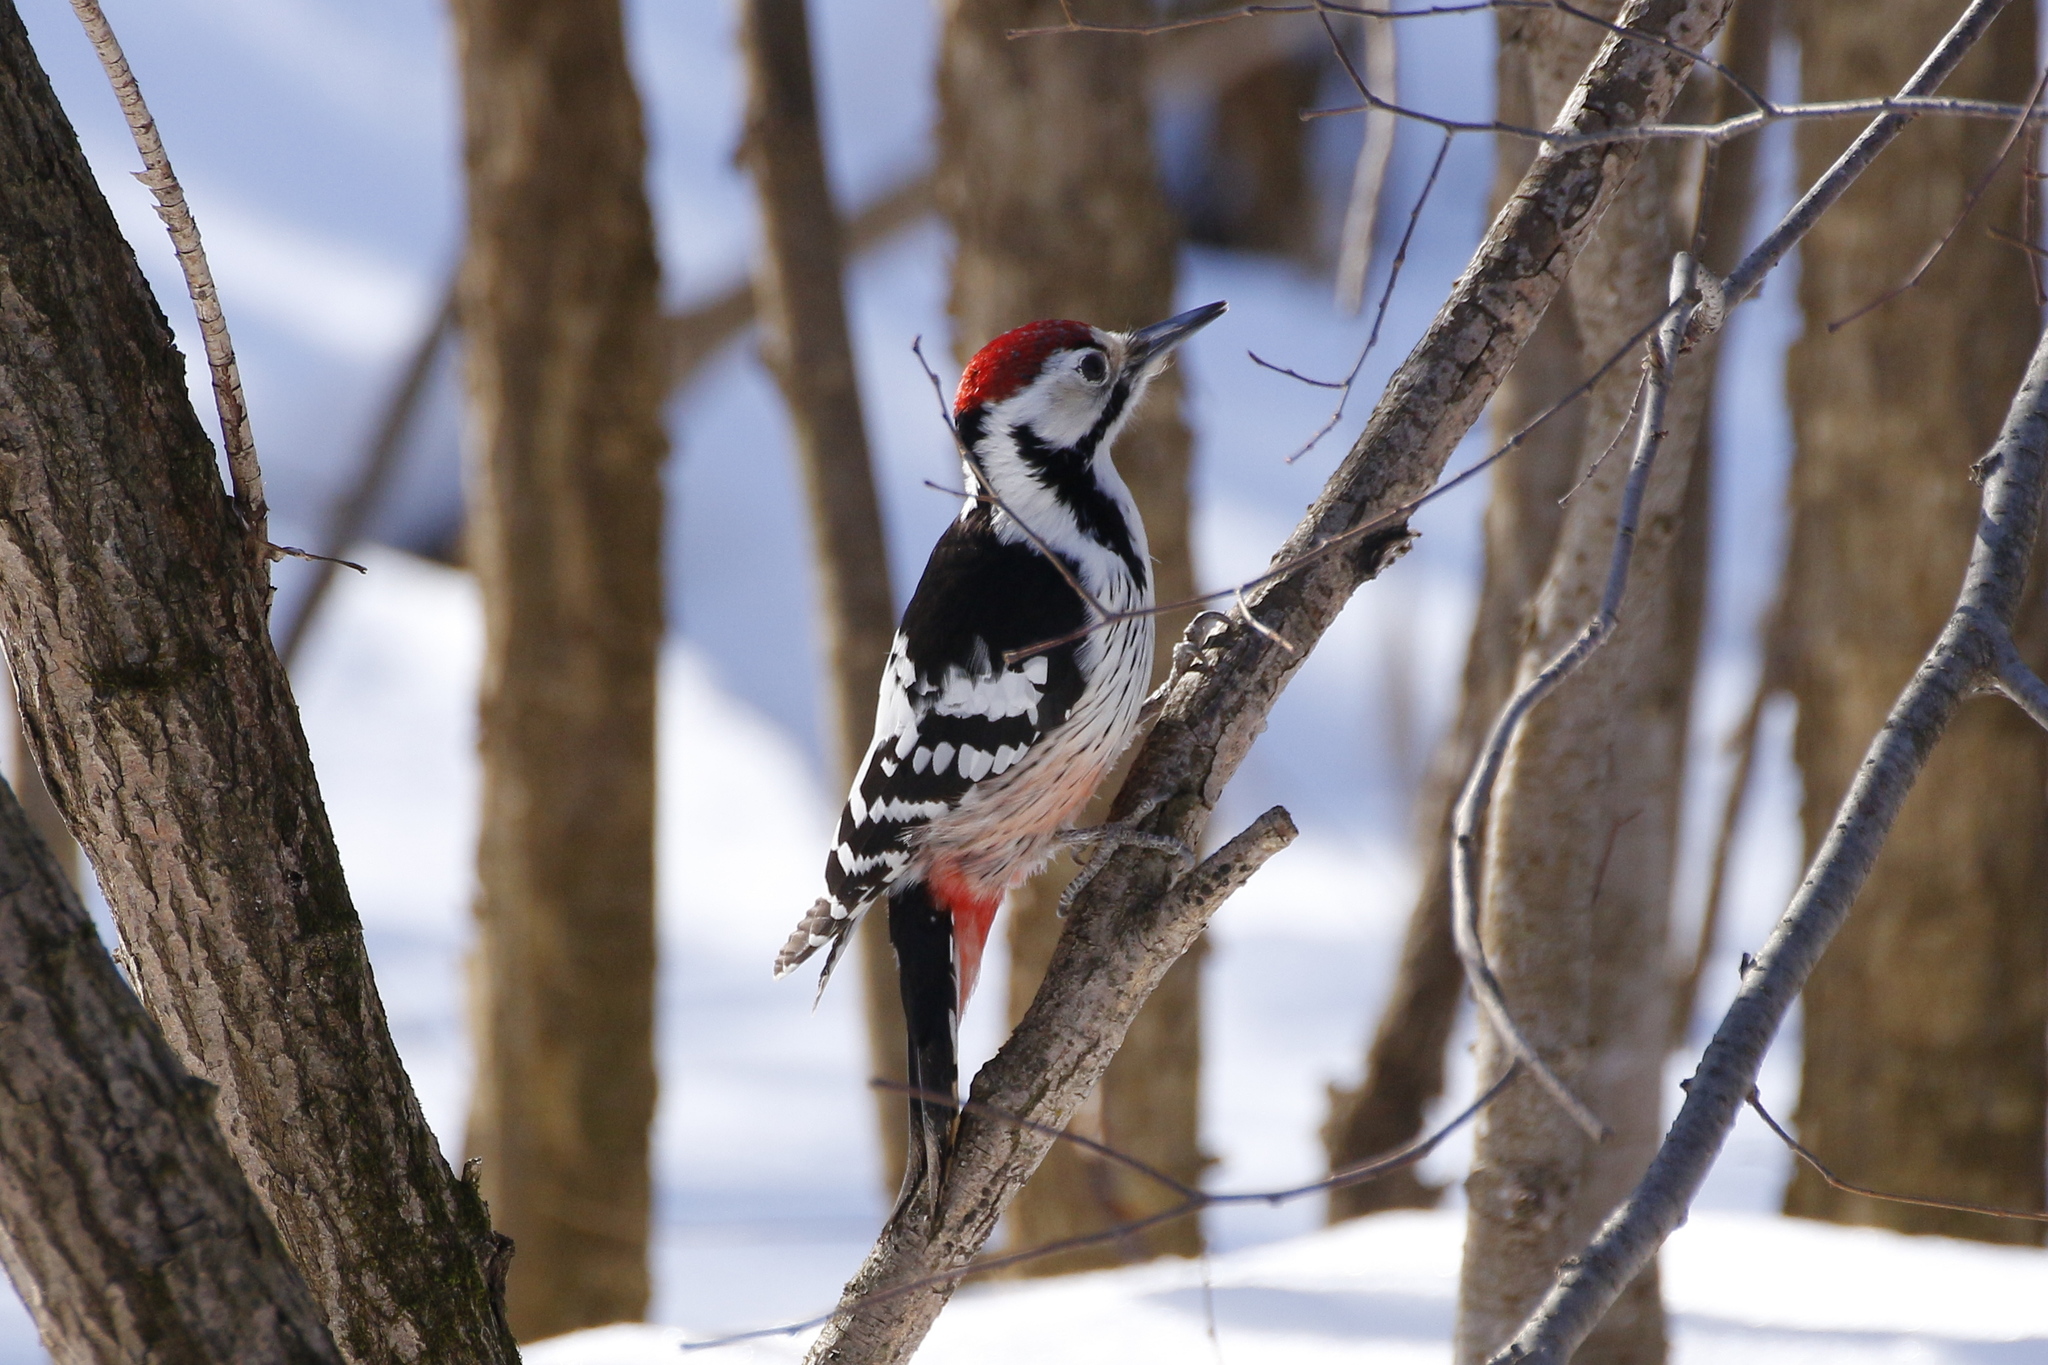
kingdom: Animalia
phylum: Chordata
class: Aves
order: Piciformes
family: Picidae
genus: Dendrocopos
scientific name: Dendrocopos leucotos
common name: White-backed woodpecker
